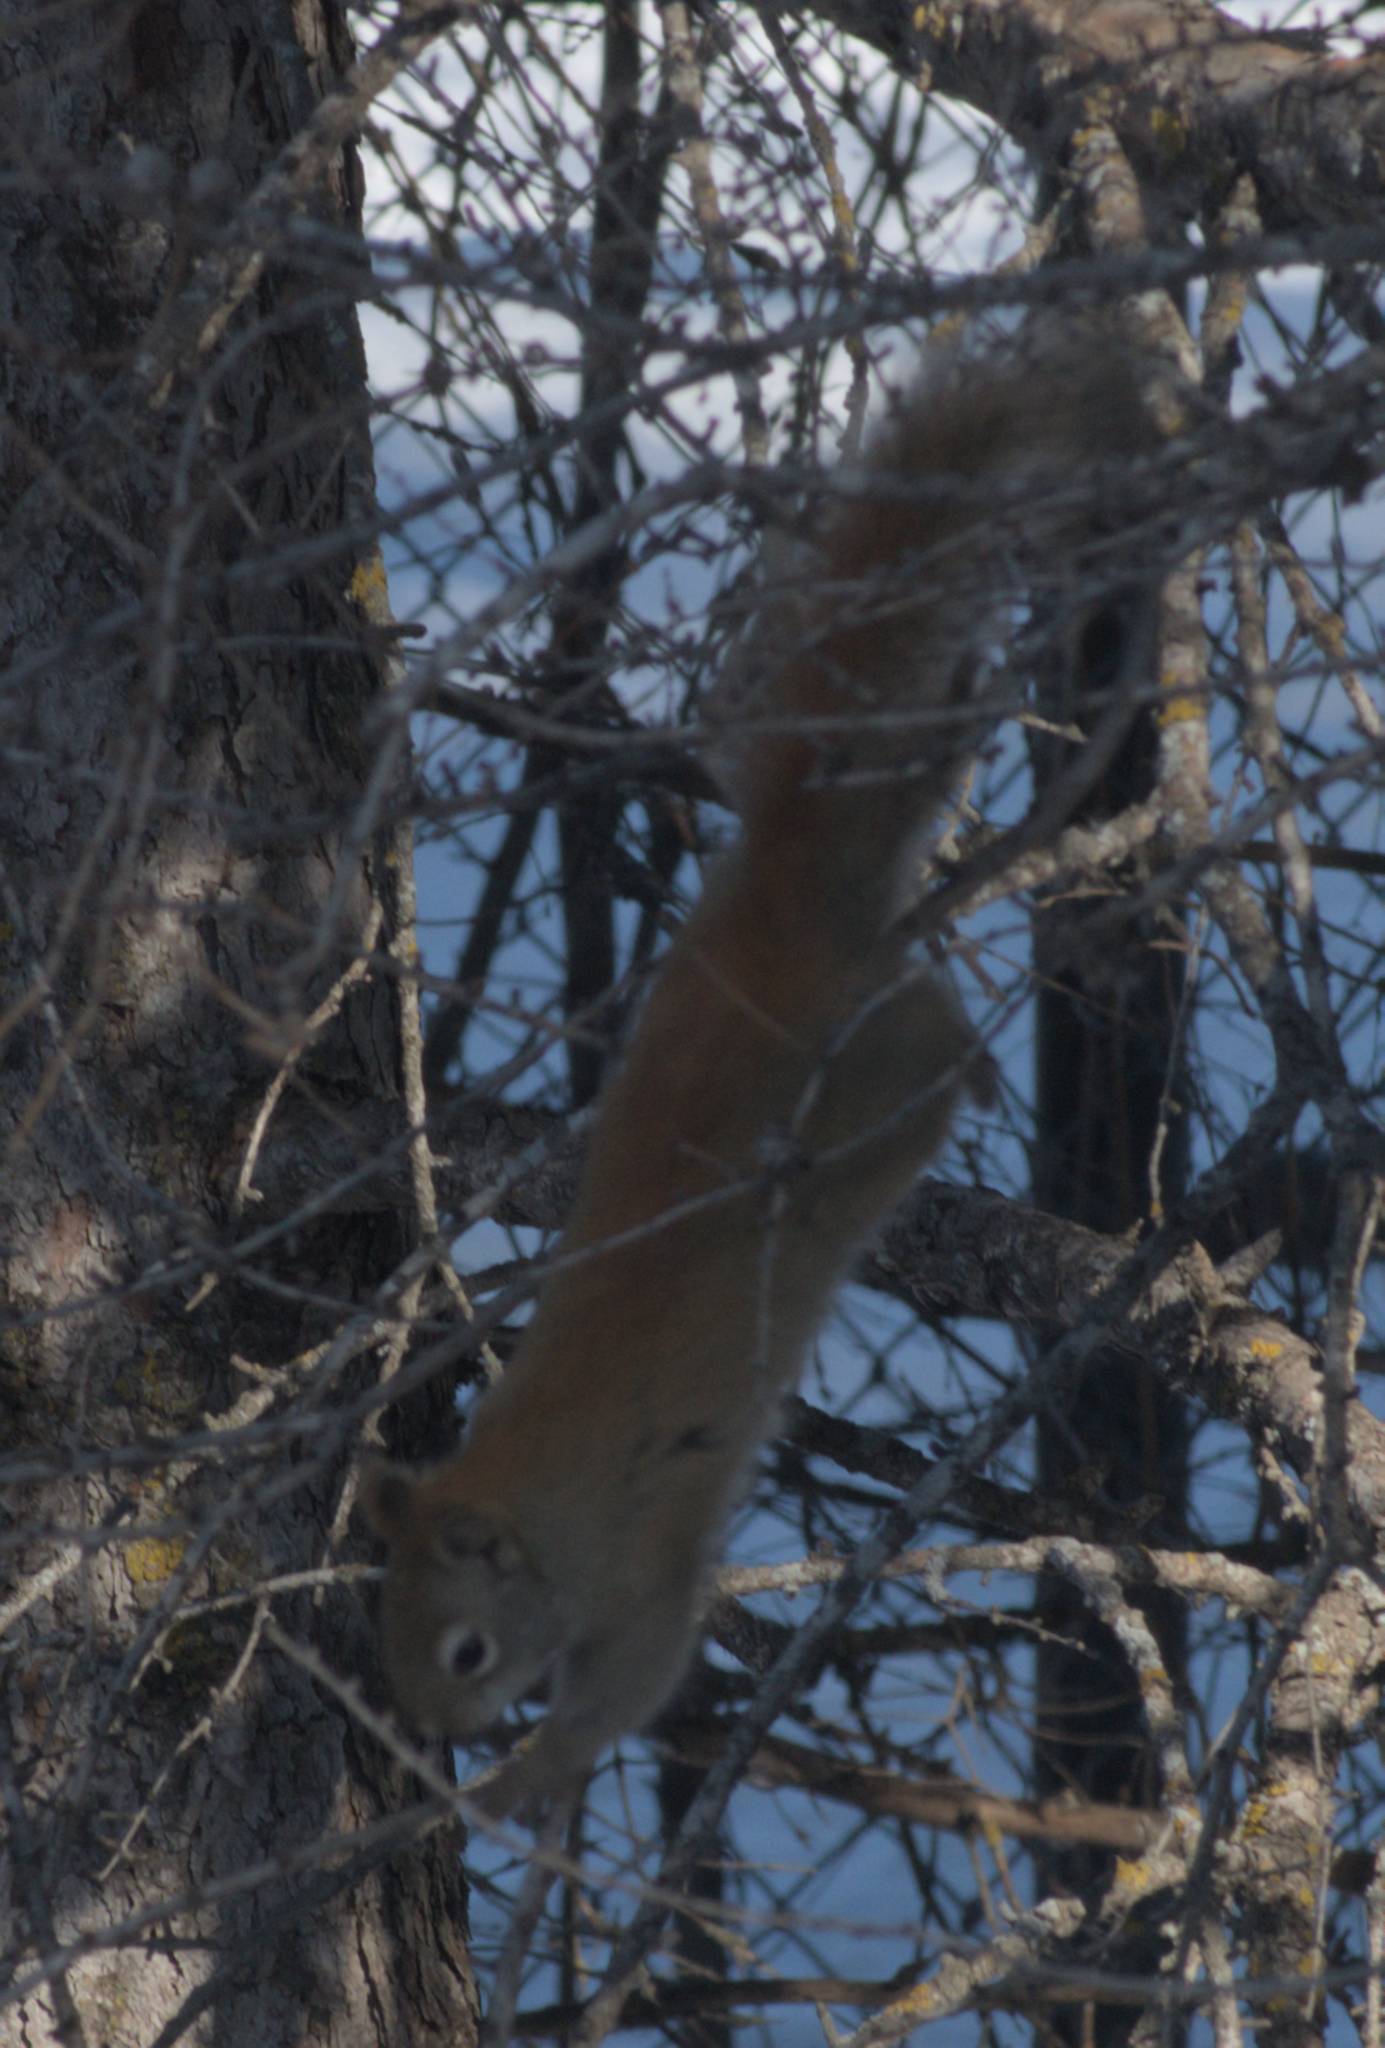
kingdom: Animalia
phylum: Chordata
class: Mammalia
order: Rodentia
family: Sciuridae
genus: Tamiasciurus
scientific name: Tamiasciurus hudsonicus
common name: Red squirrel
